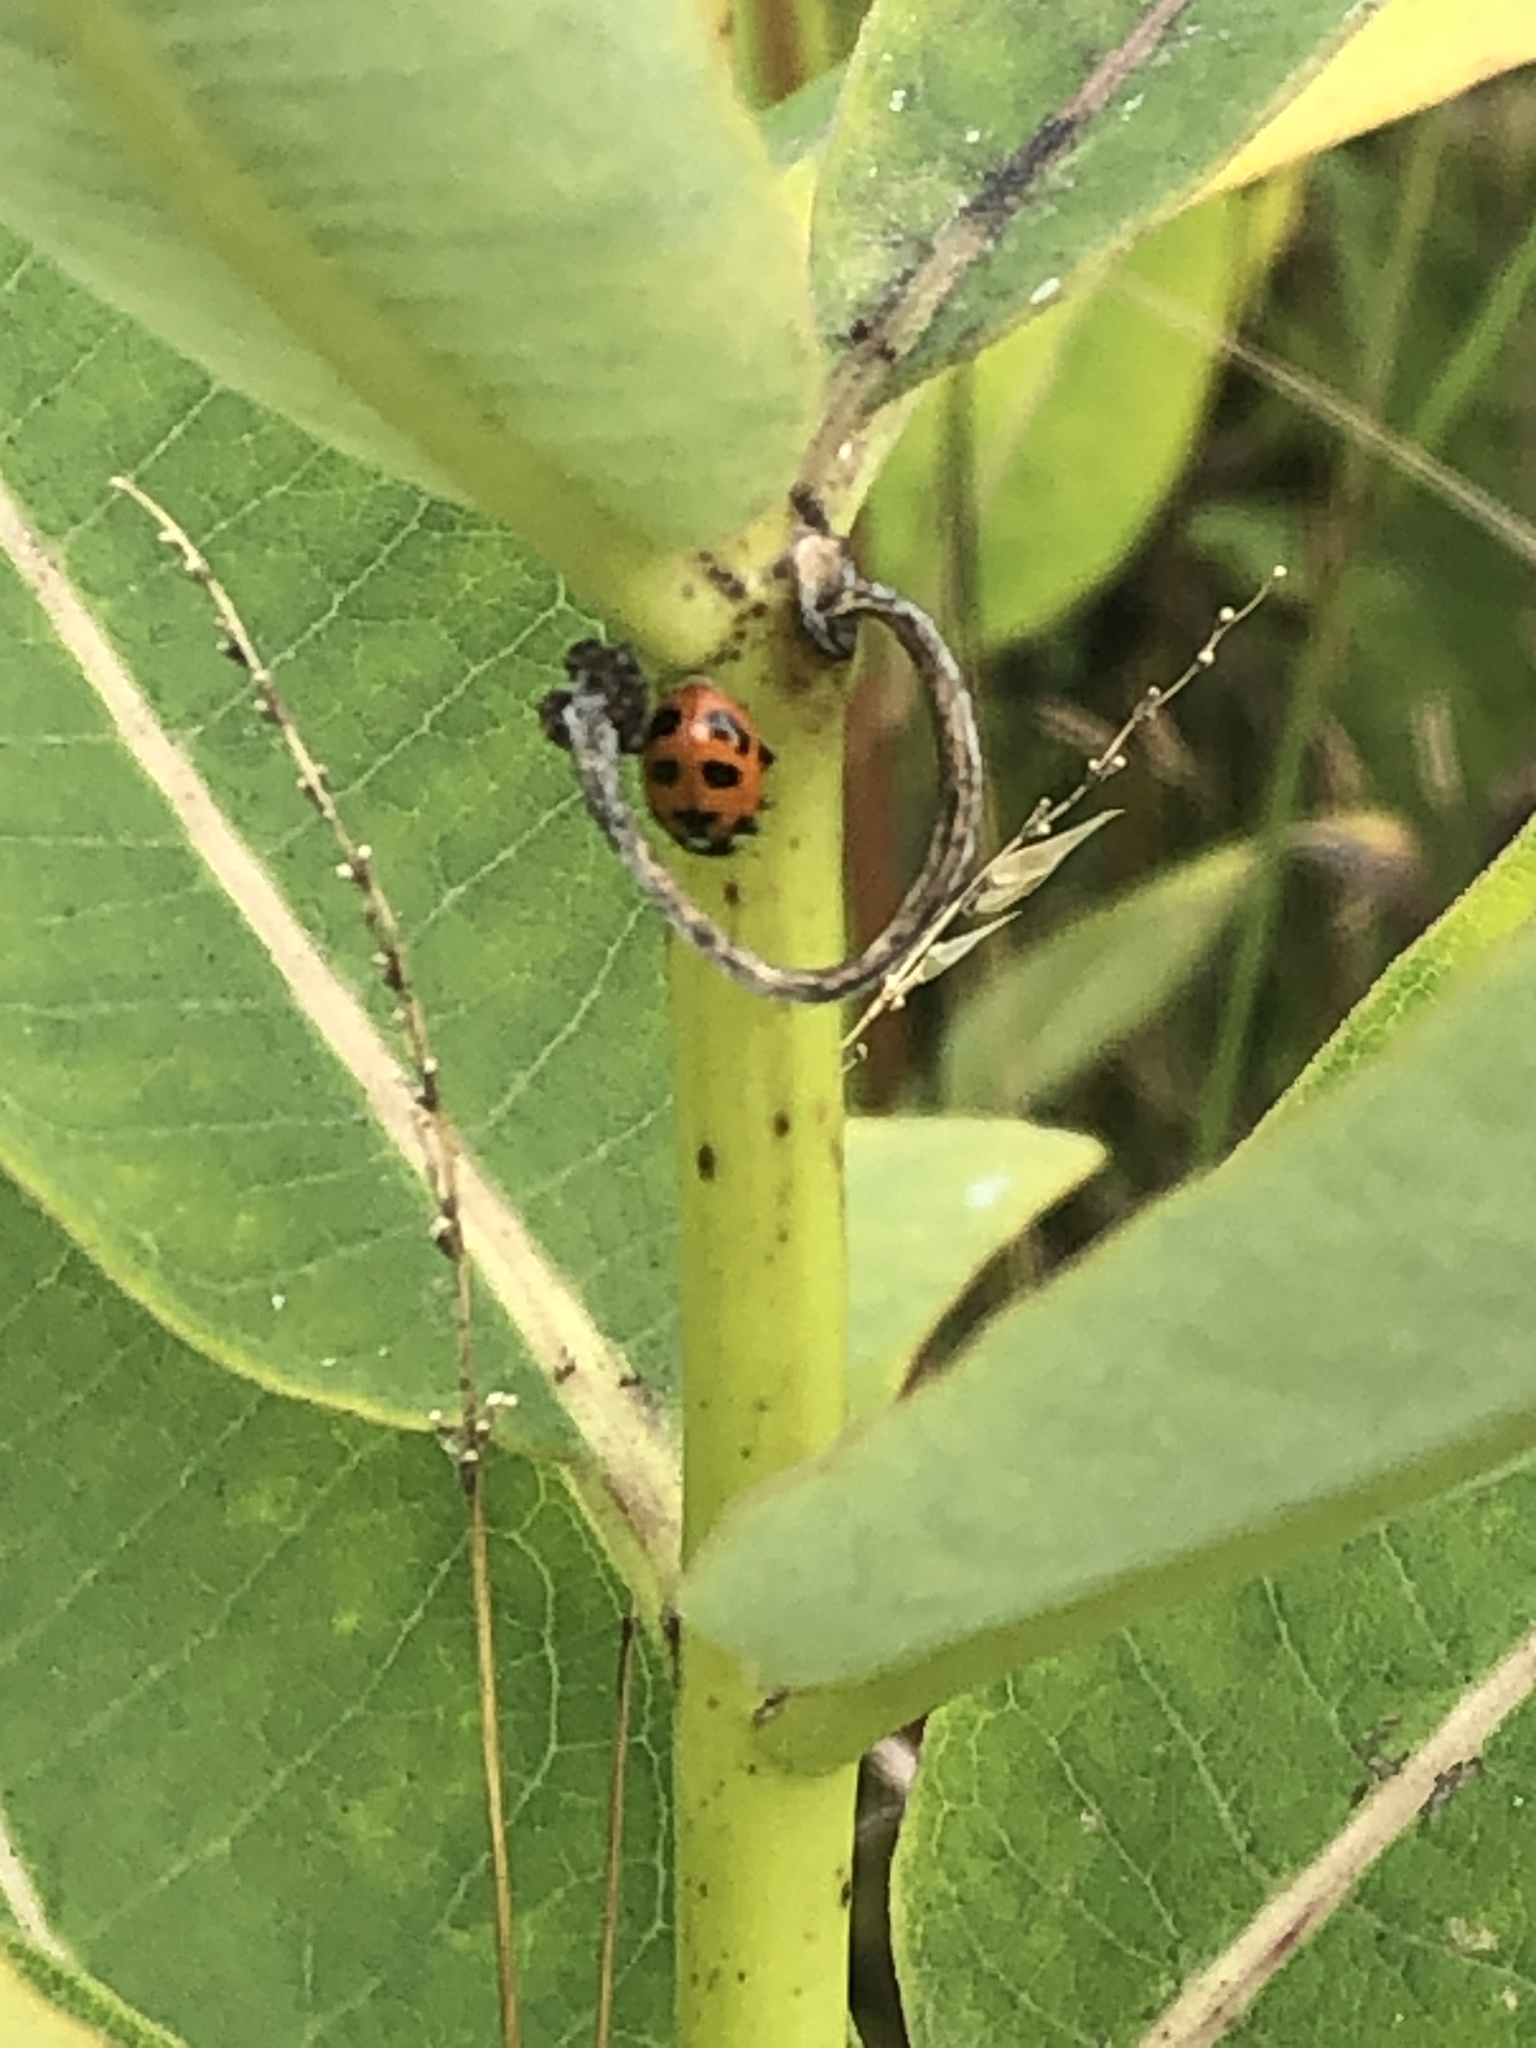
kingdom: Animalia
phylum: Arthropoda
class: Insecta
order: Coleoptera
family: Coccinellidae
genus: Hippodamia
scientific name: Hippodamia parenthesis
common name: Parenthesis lady beetle
